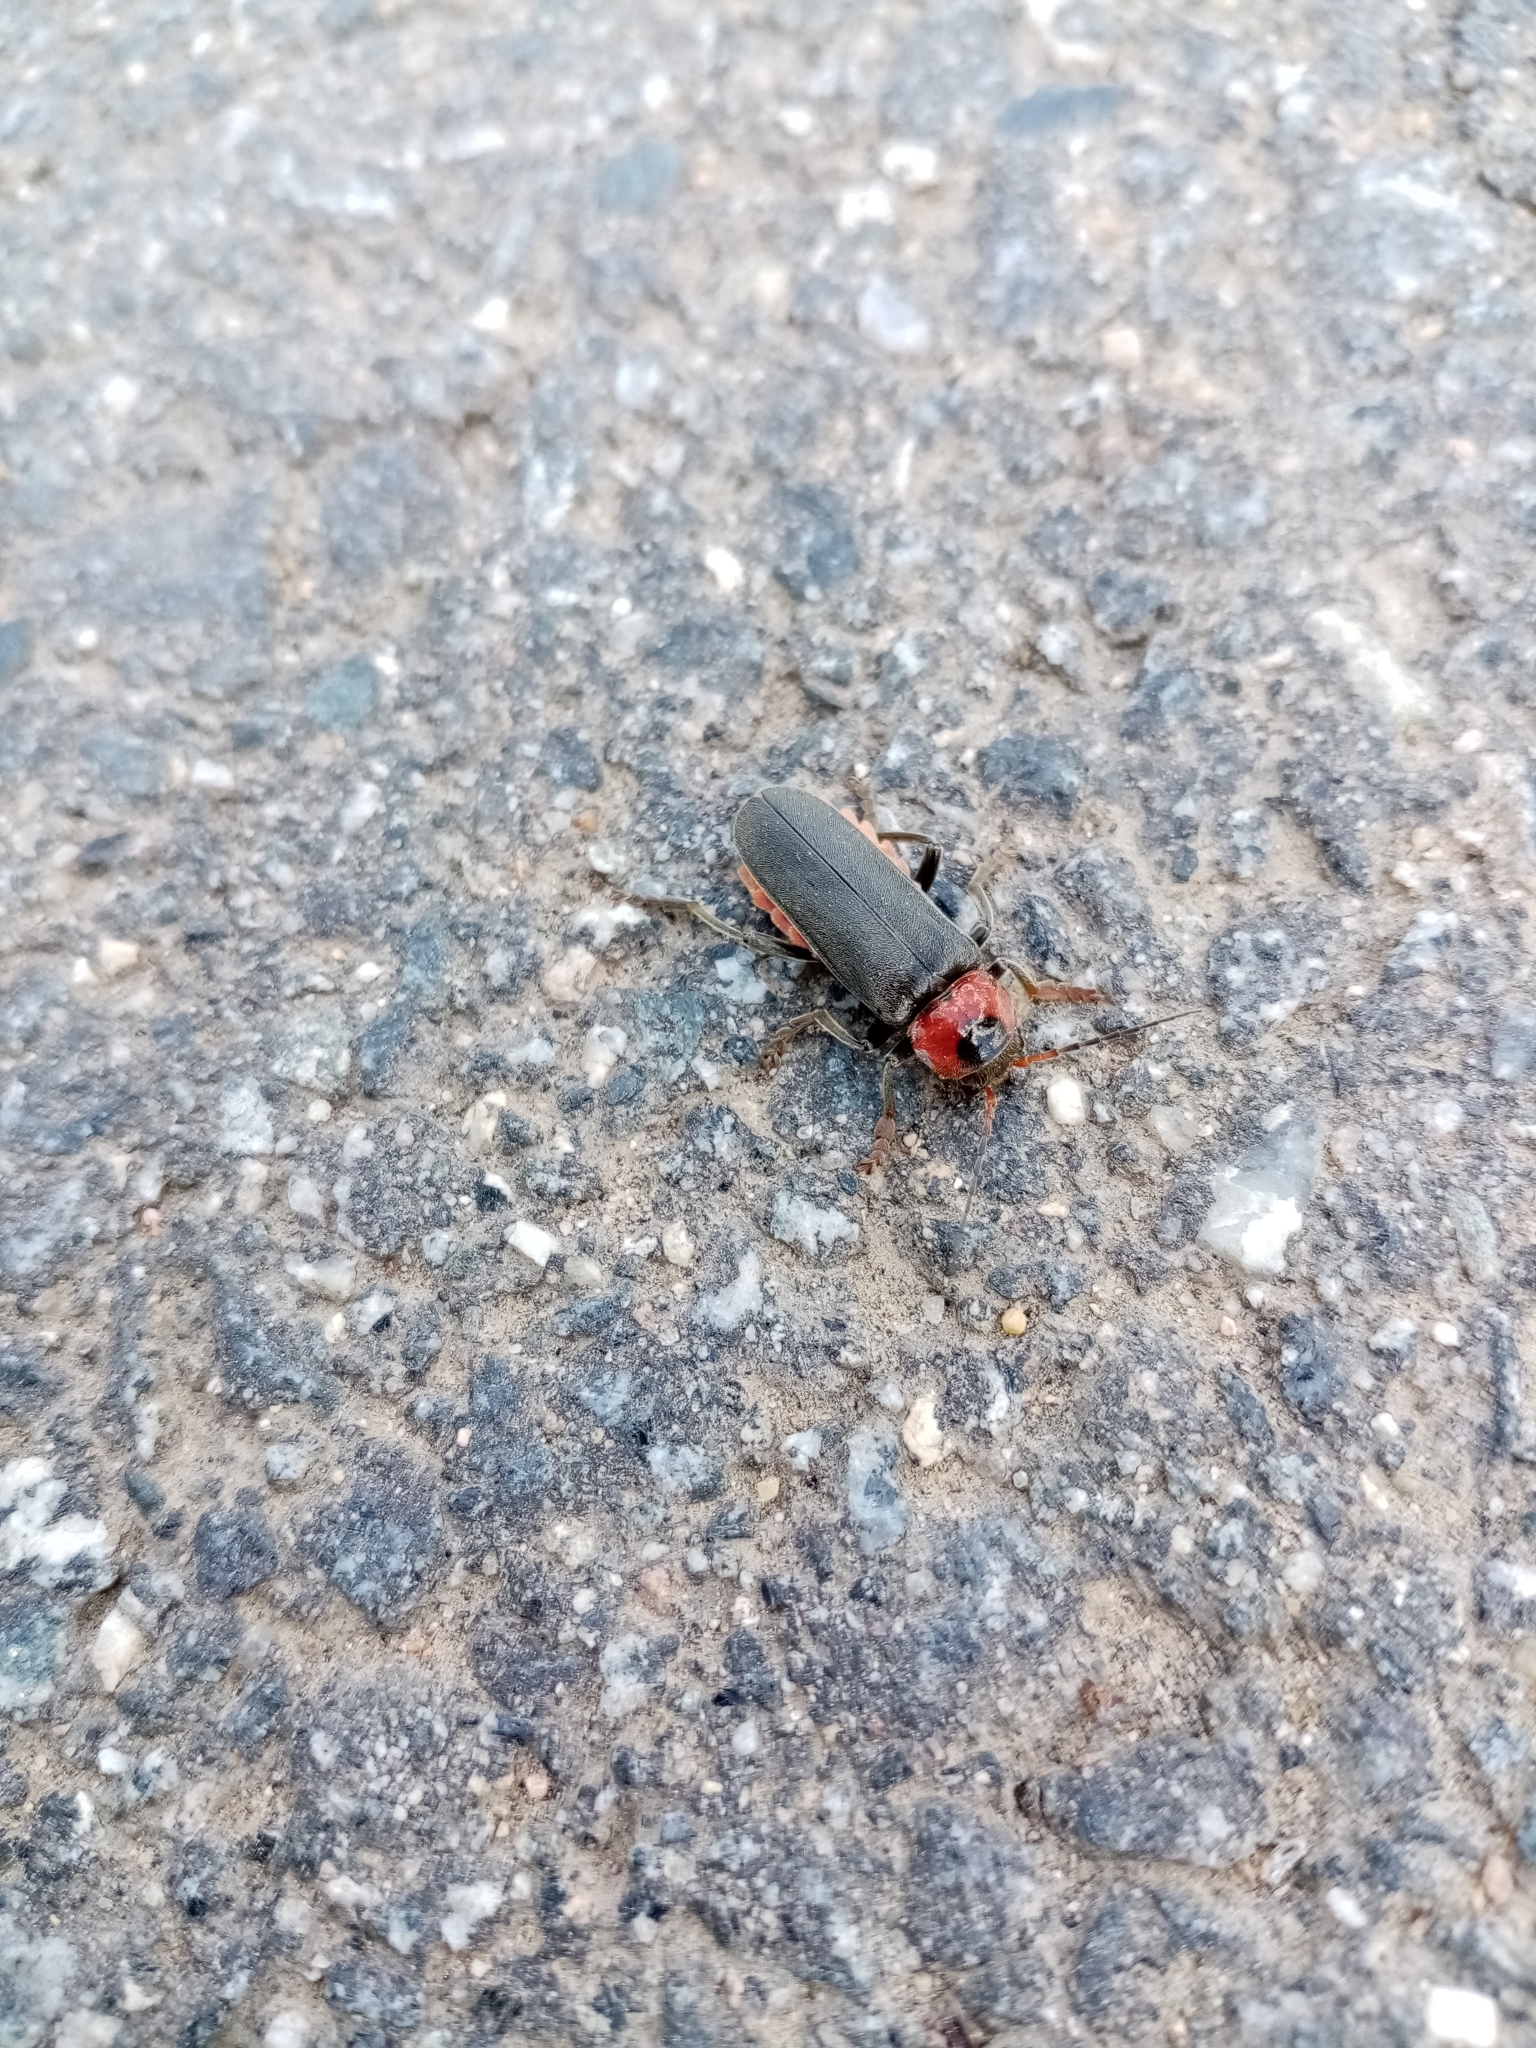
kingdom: Animalia
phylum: Arthropoda
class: Insecta
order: Coleoptera
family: Cantharidae
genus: Cantharis
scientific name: Cantharis fusca
